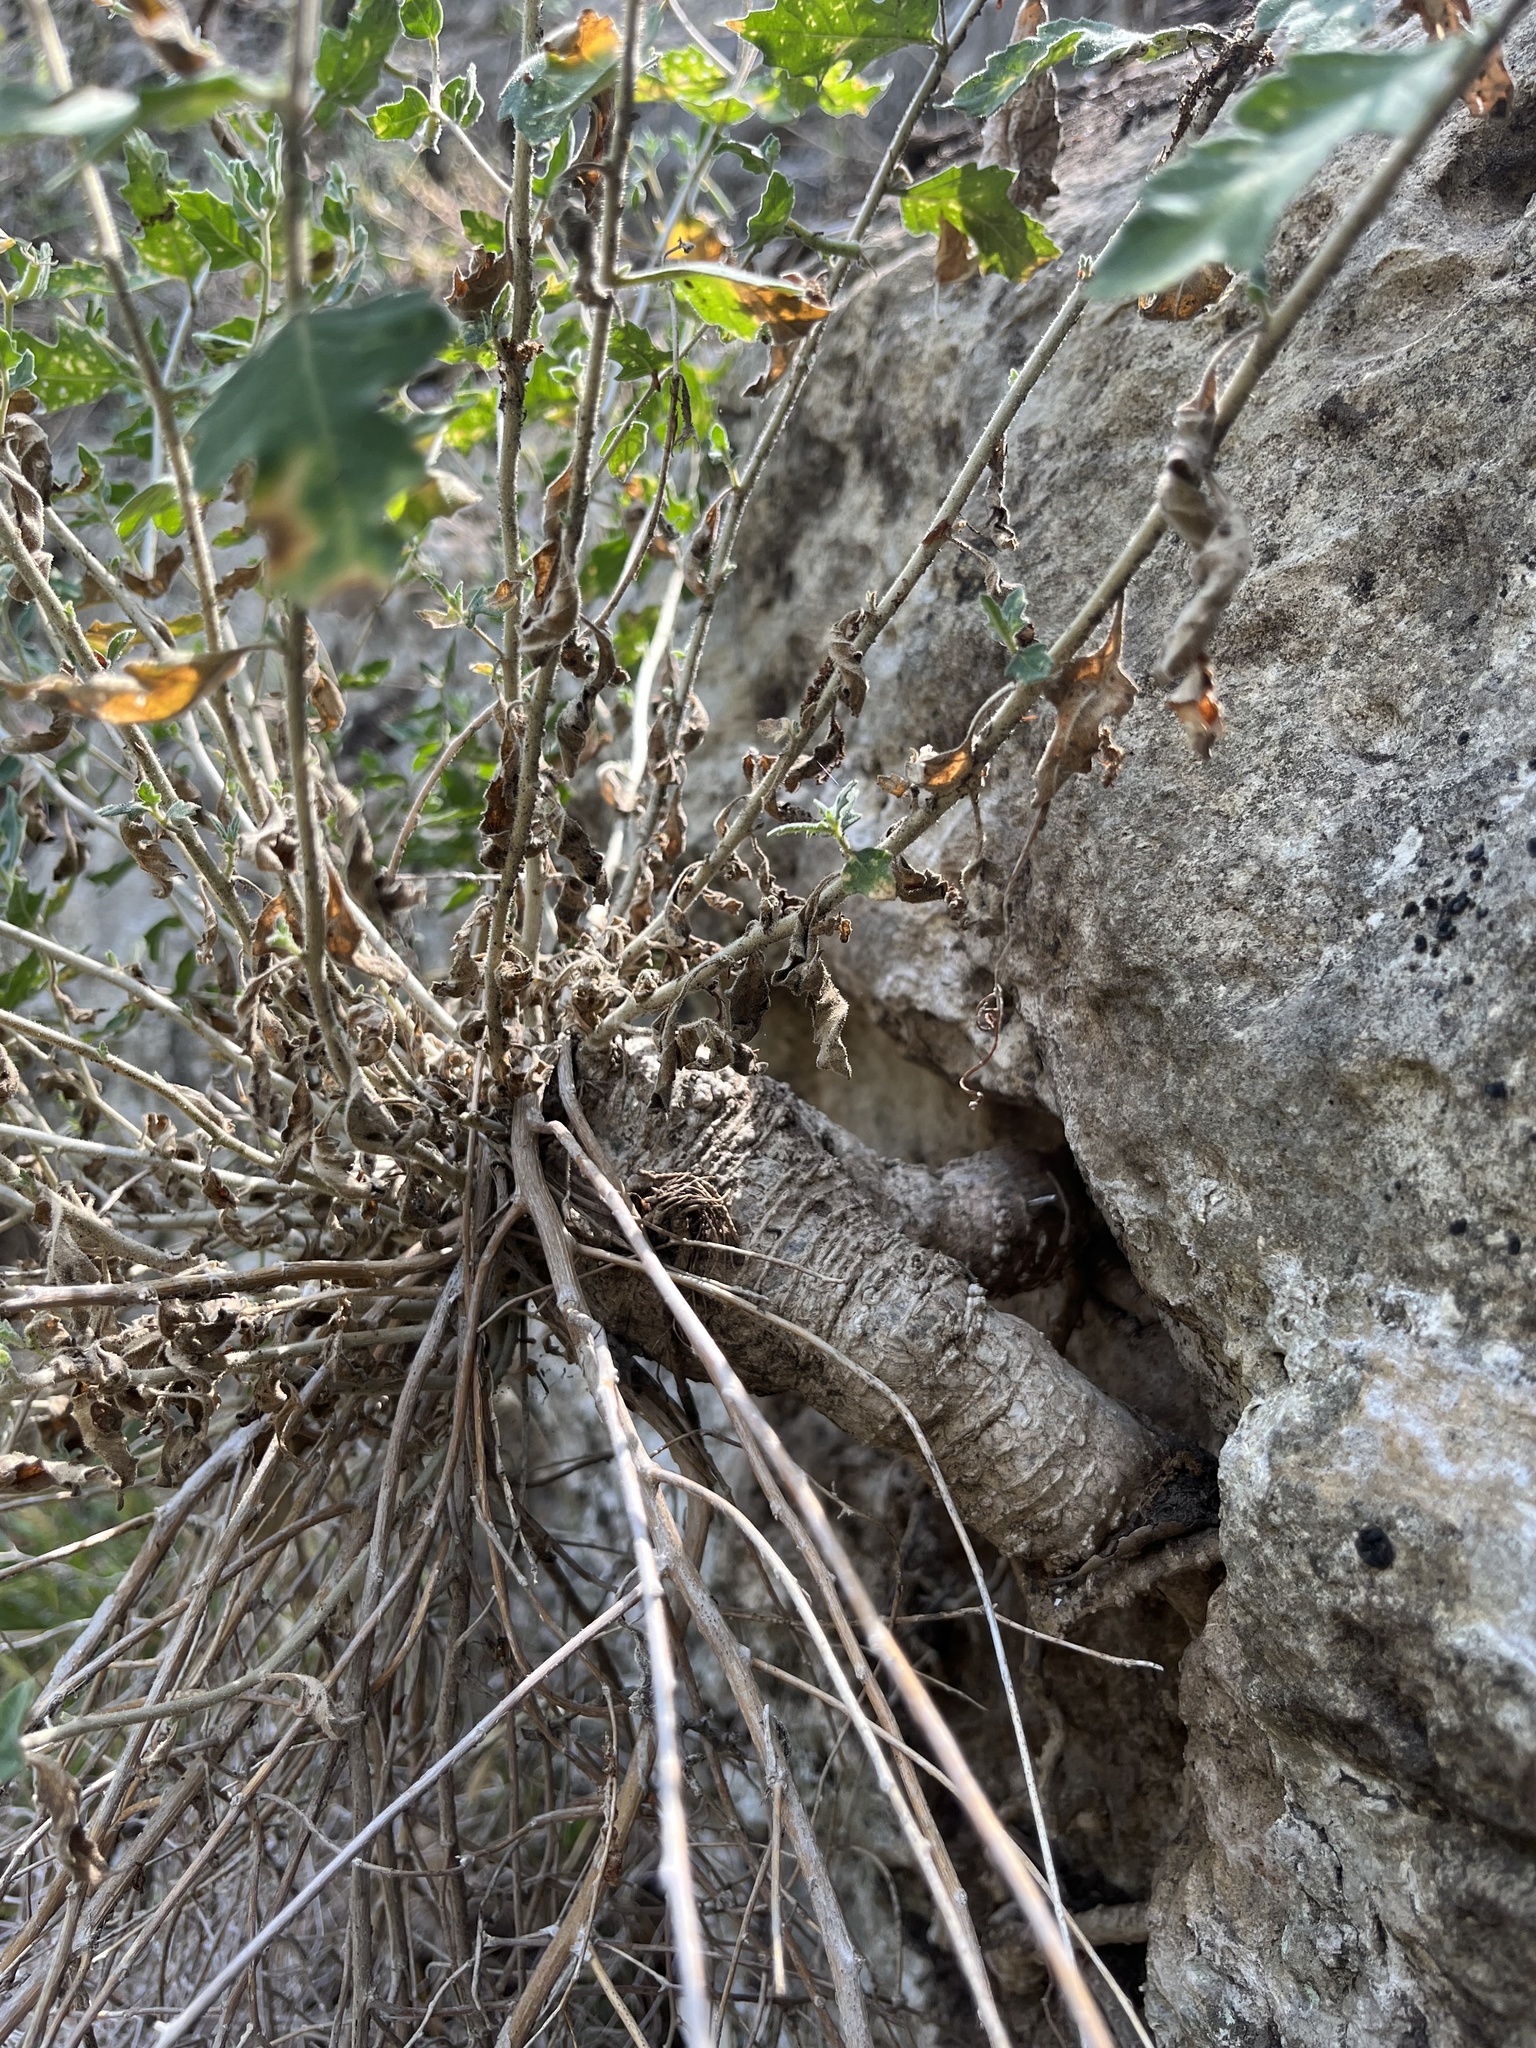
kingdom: Plantae
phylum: Tracheophyta
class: Magnoliopsida
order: Cornales
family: Loasaceae
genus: Mentzelia
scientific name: Mentzelia oligosperma
